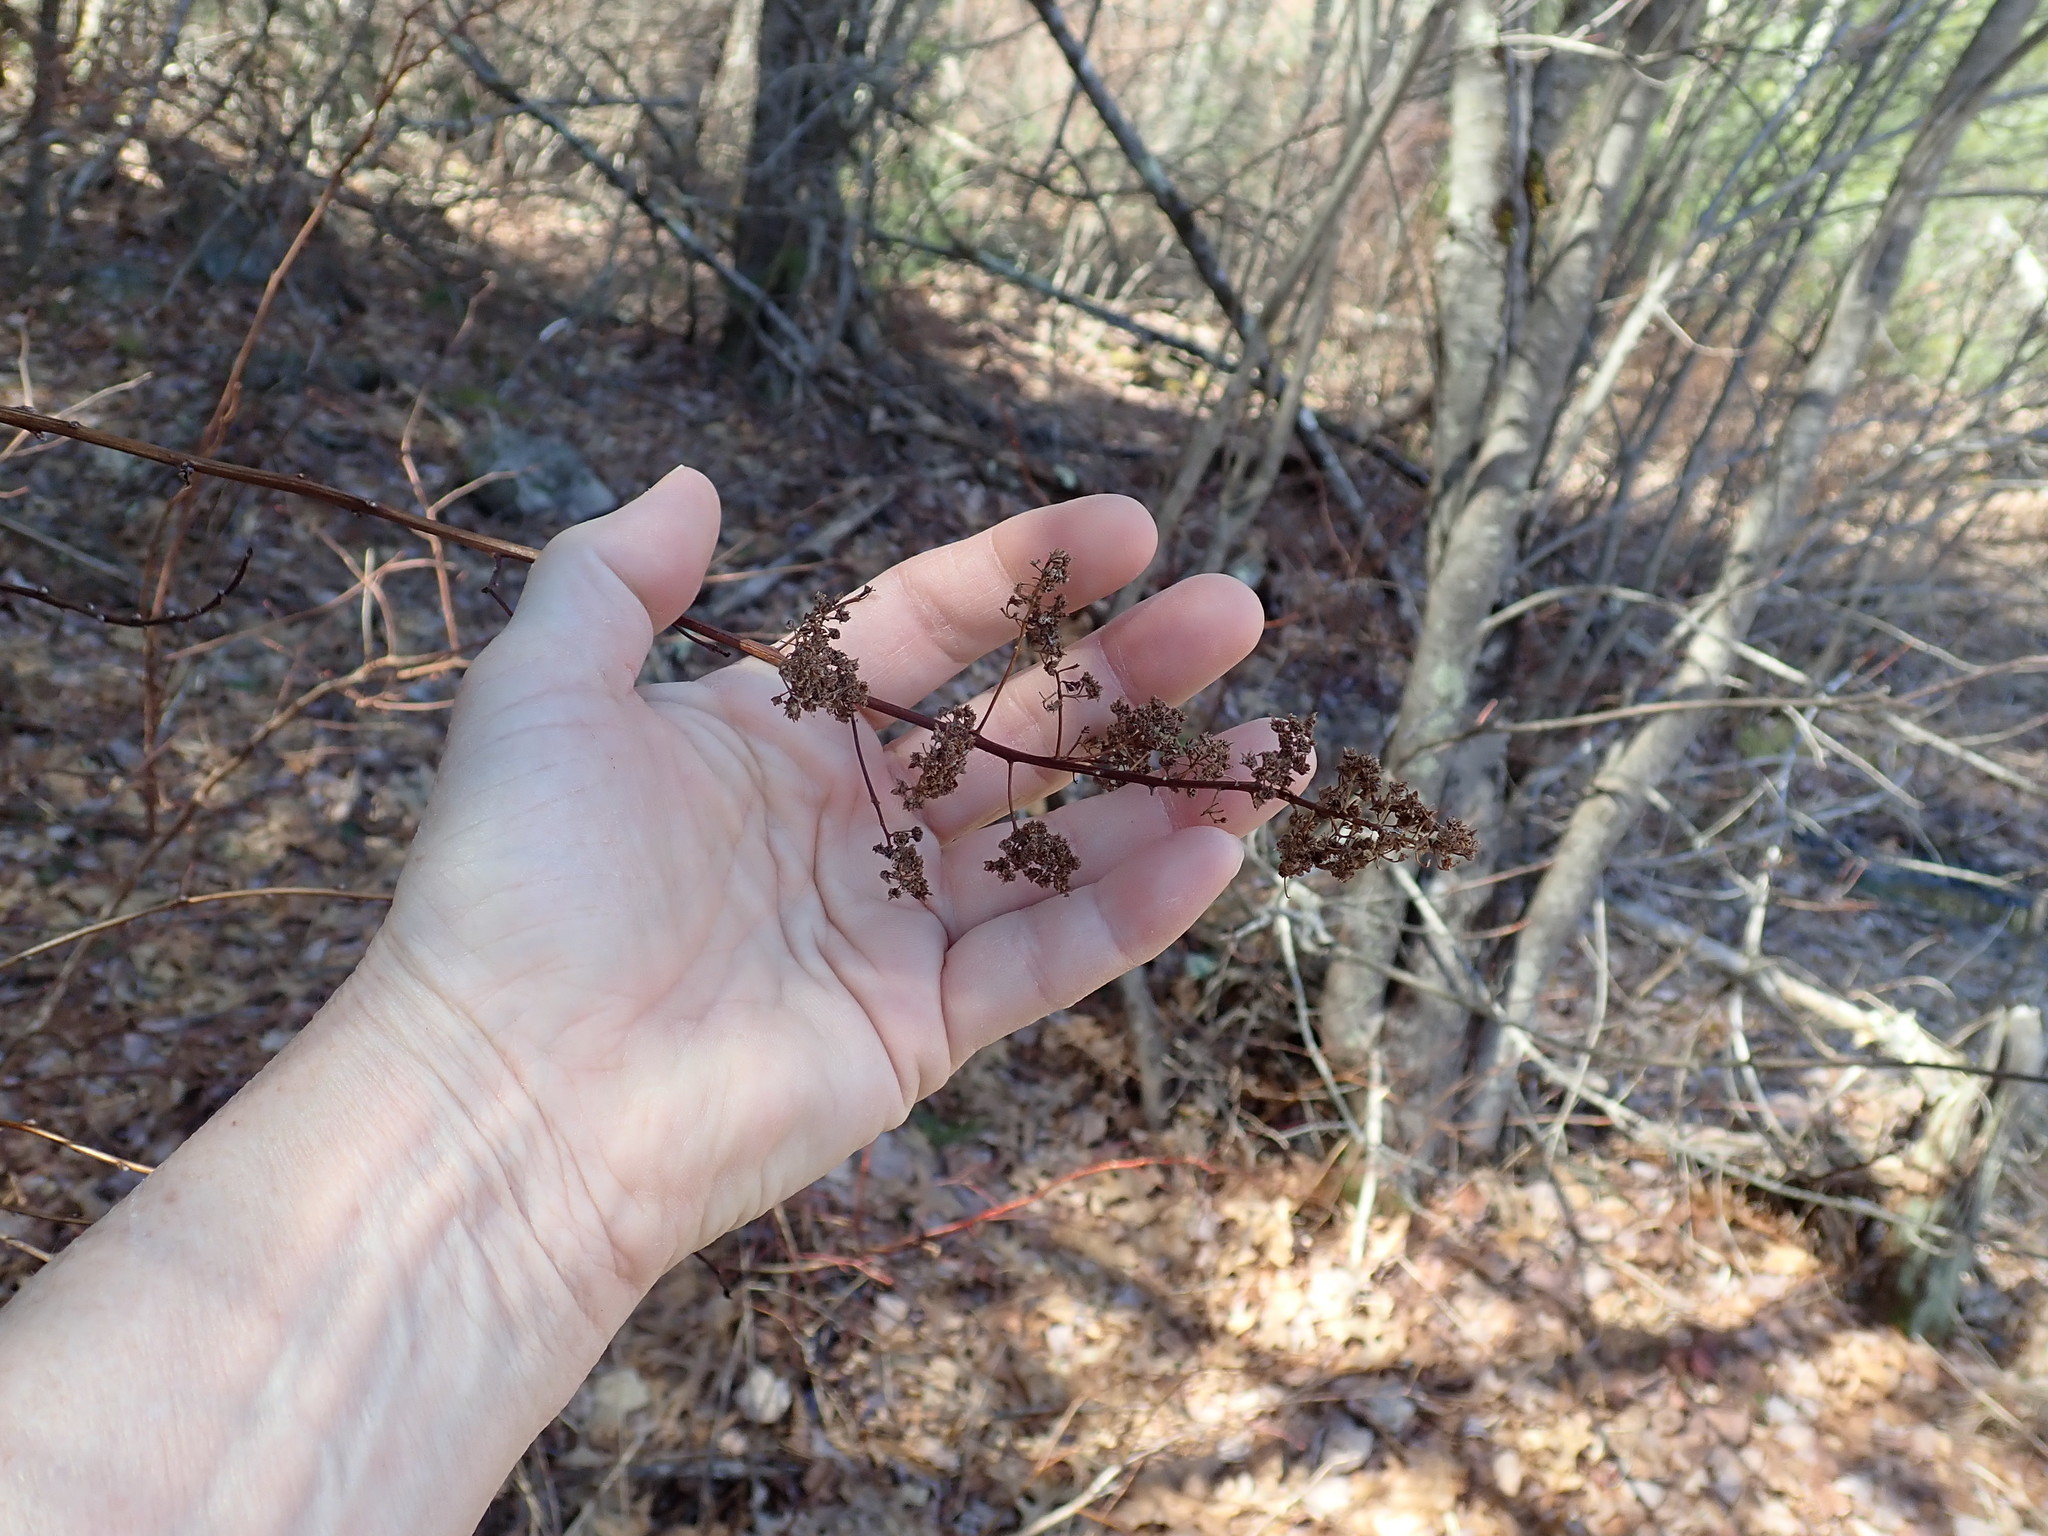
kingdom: Plantae
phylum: Tracheophyta
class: Magnoliopsida
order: Rosales
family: Rosaceae
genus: Spiraea
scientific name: Spiraea alba
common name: Pale bridewort
